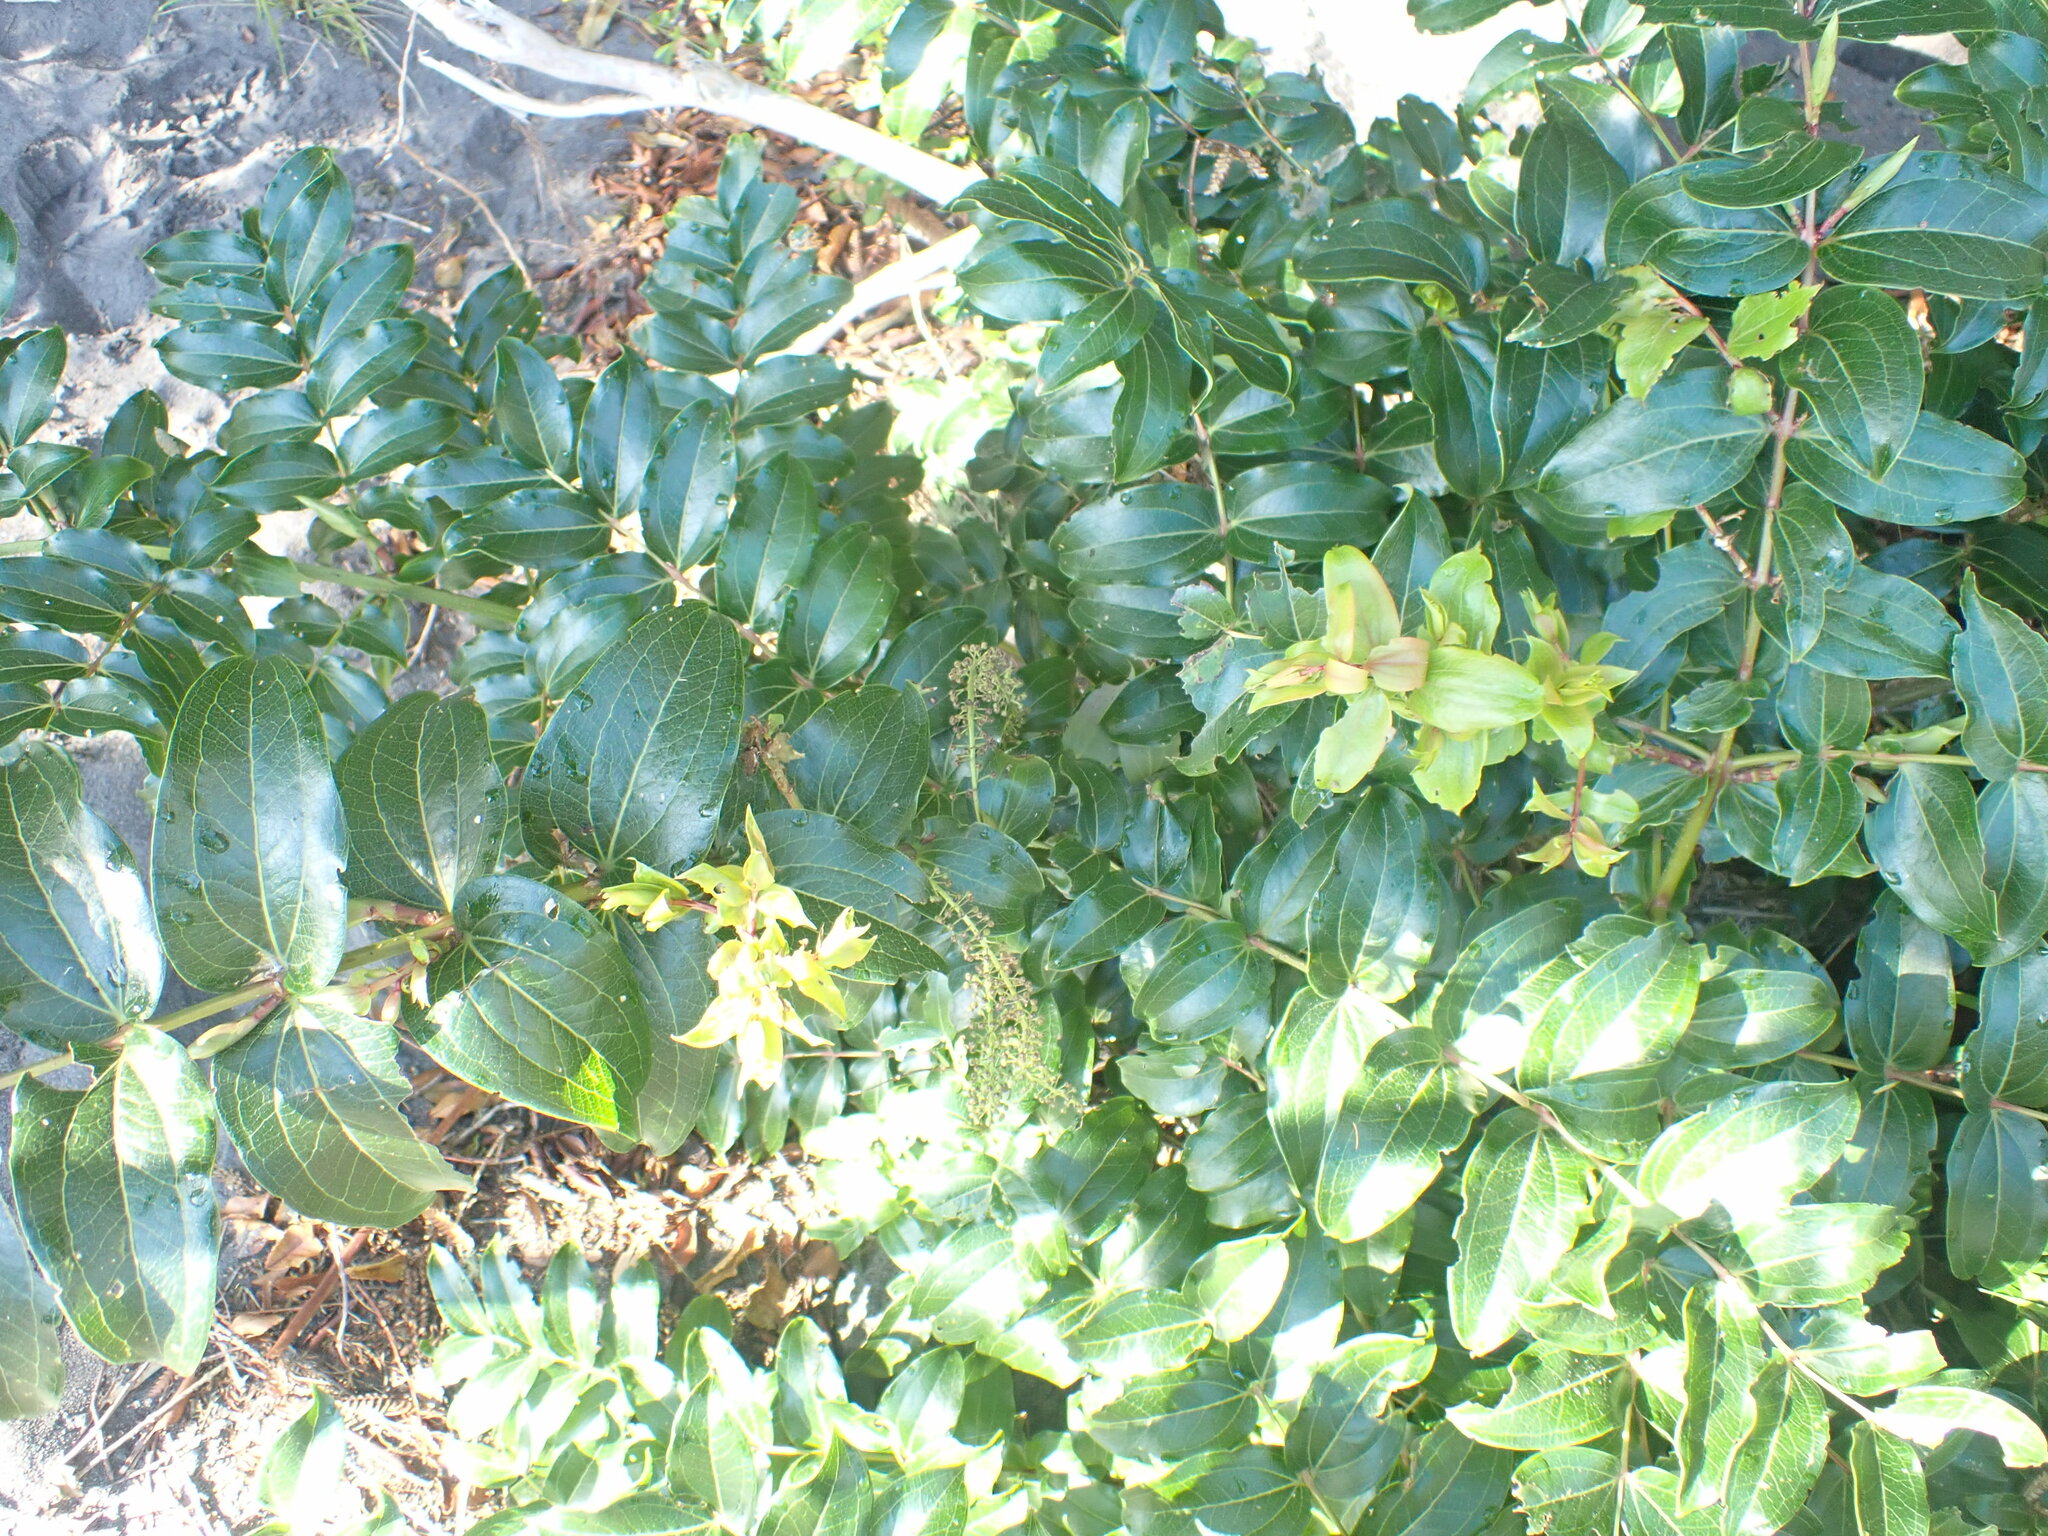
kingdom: Plantae
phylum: Tracheophyta
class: Magnoliopsida
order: Cucurbitales
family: Coriariaceae
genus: Coriaria
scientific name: Coriaria arborea
